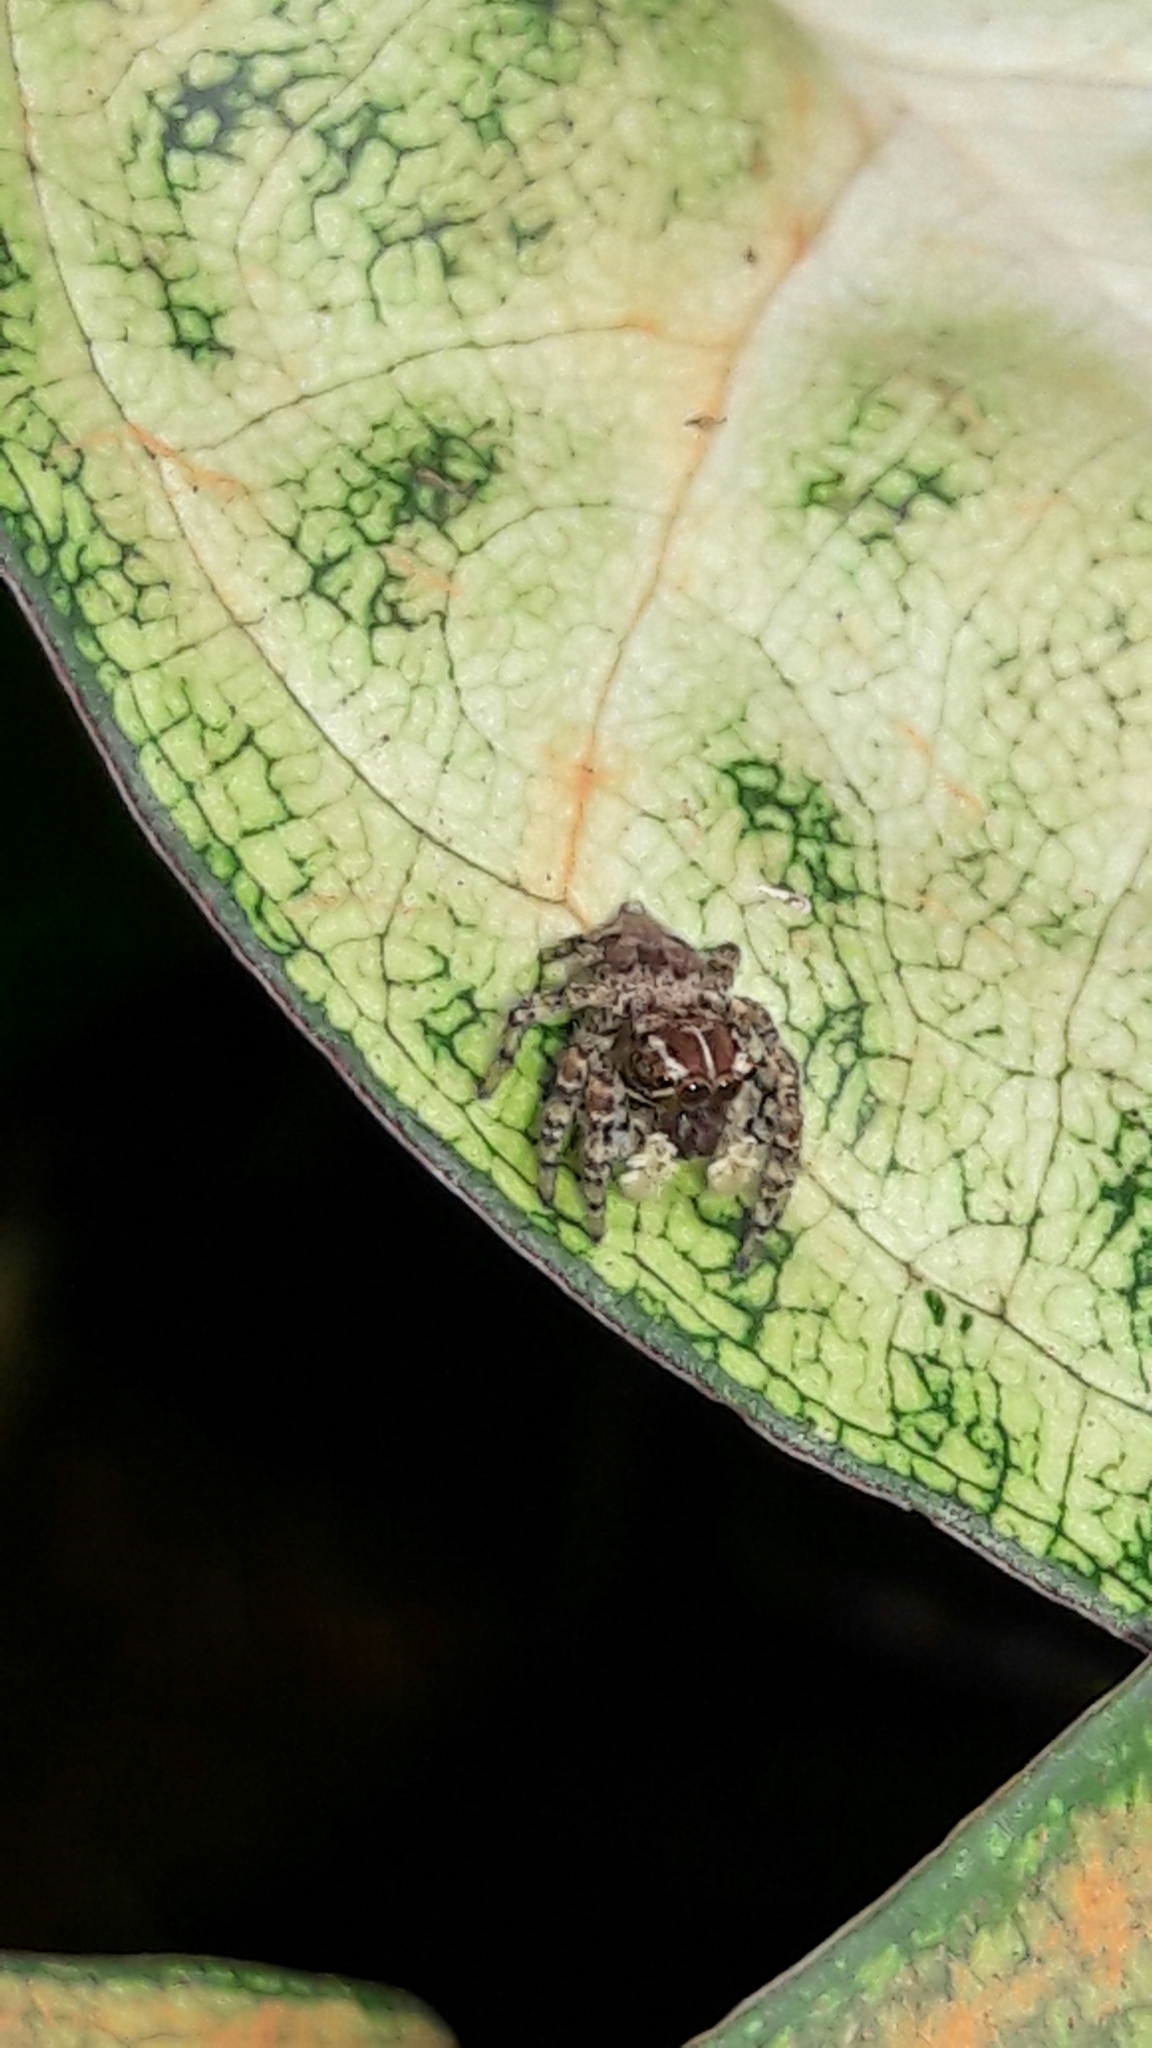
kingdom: Animalia
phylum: Arthropoda
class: Arachnida
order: Araneae
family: Salticidae
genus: Sumampattus
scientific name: Sumampattus quinqueradiatus
